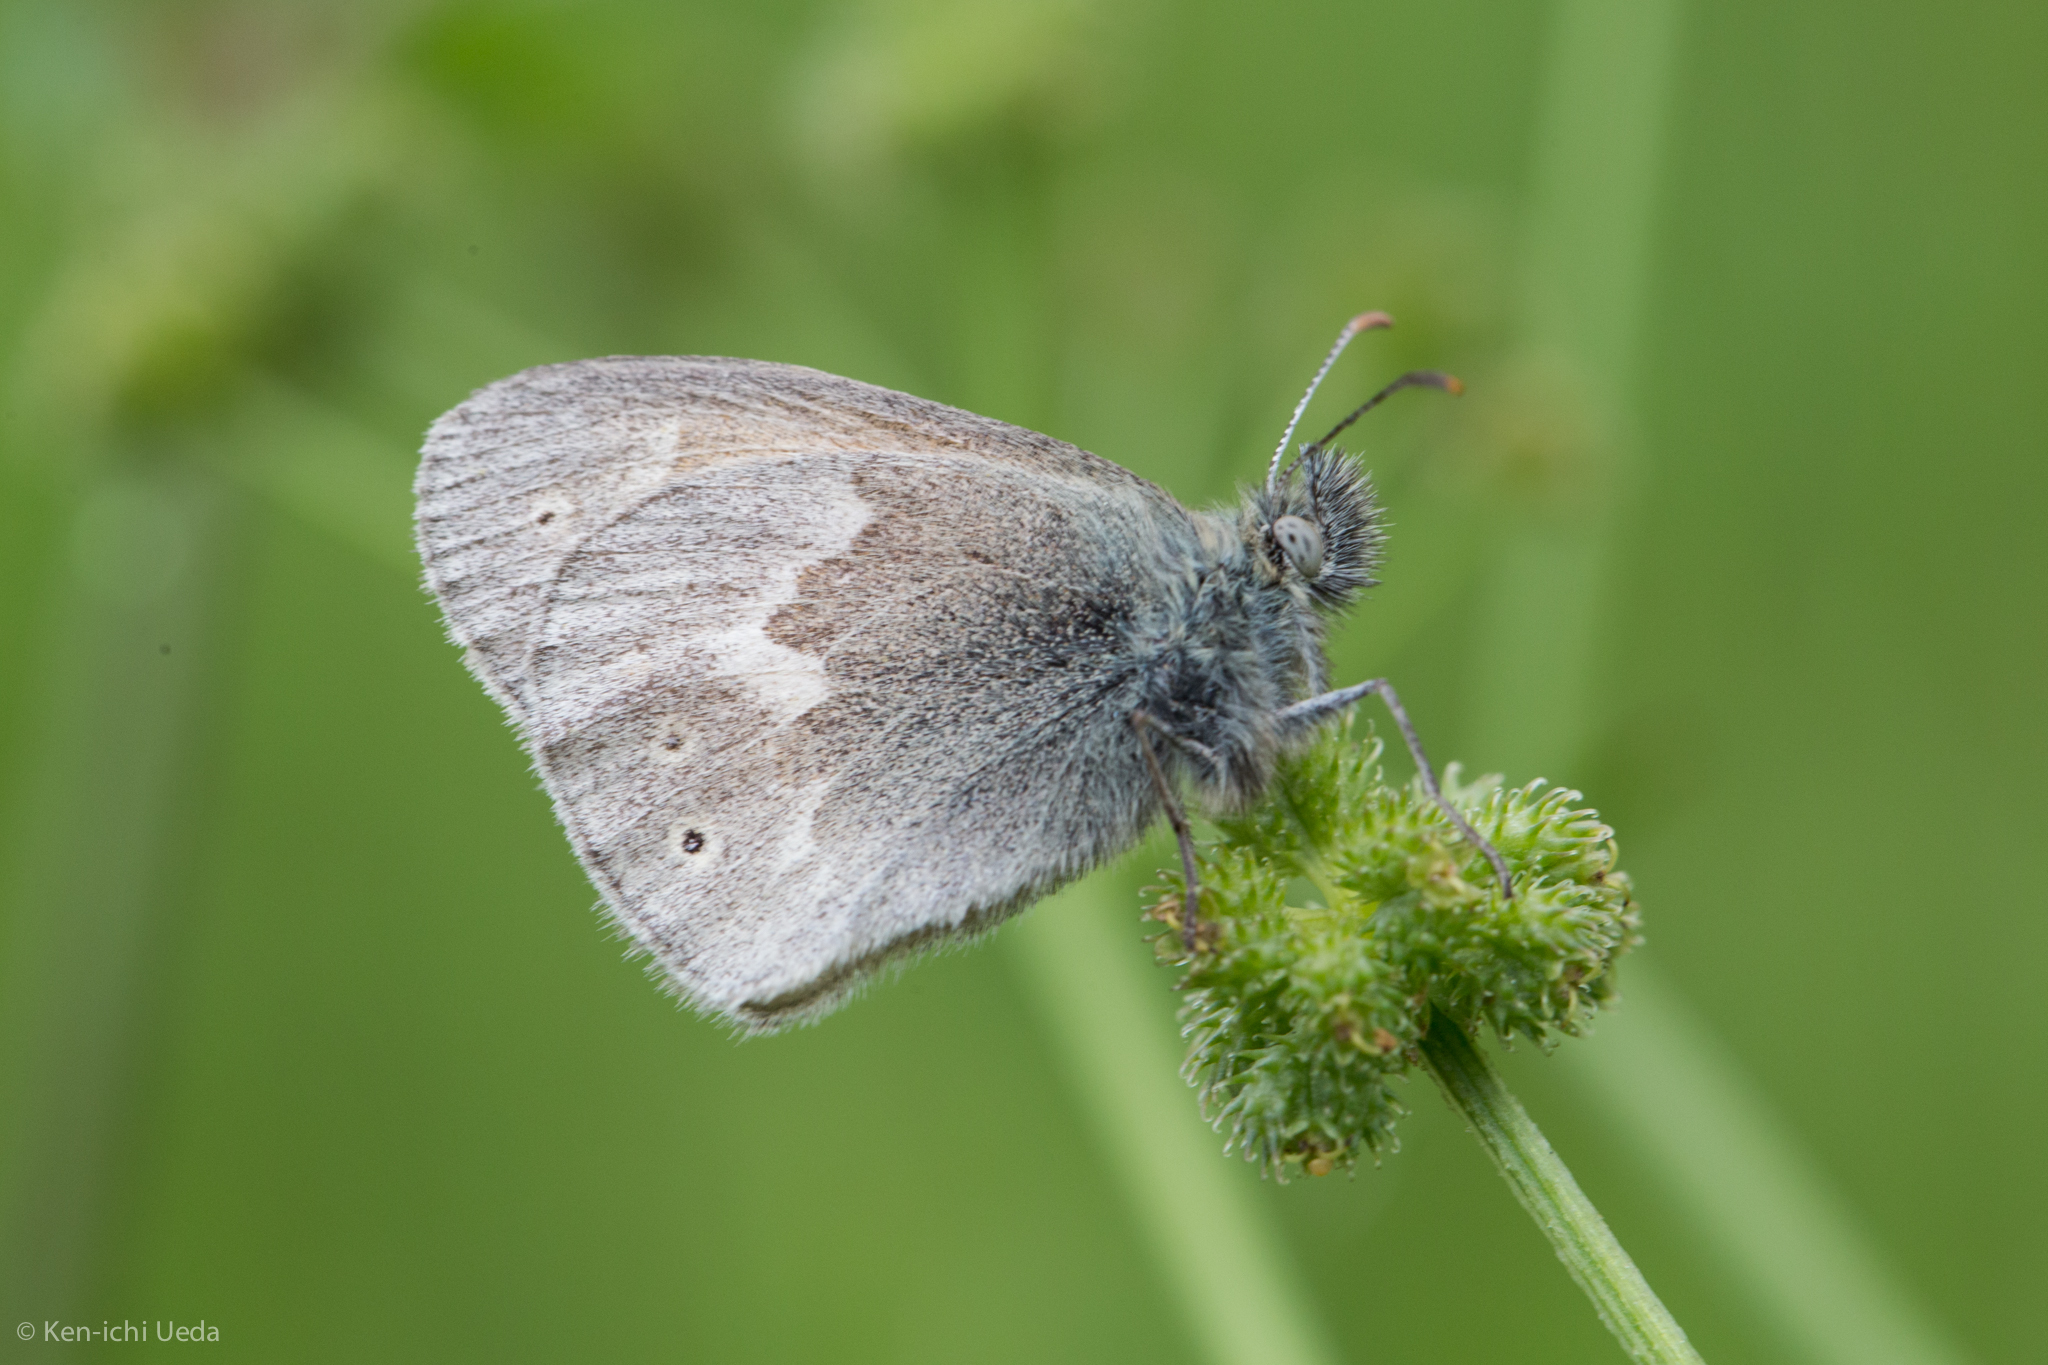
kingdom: Animalia
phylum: Arthropoda
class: Insecta
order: Lepidoptera
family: Nymphalidae
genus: Coenonympha
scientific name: Coenonympha california
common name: Common ringlet
